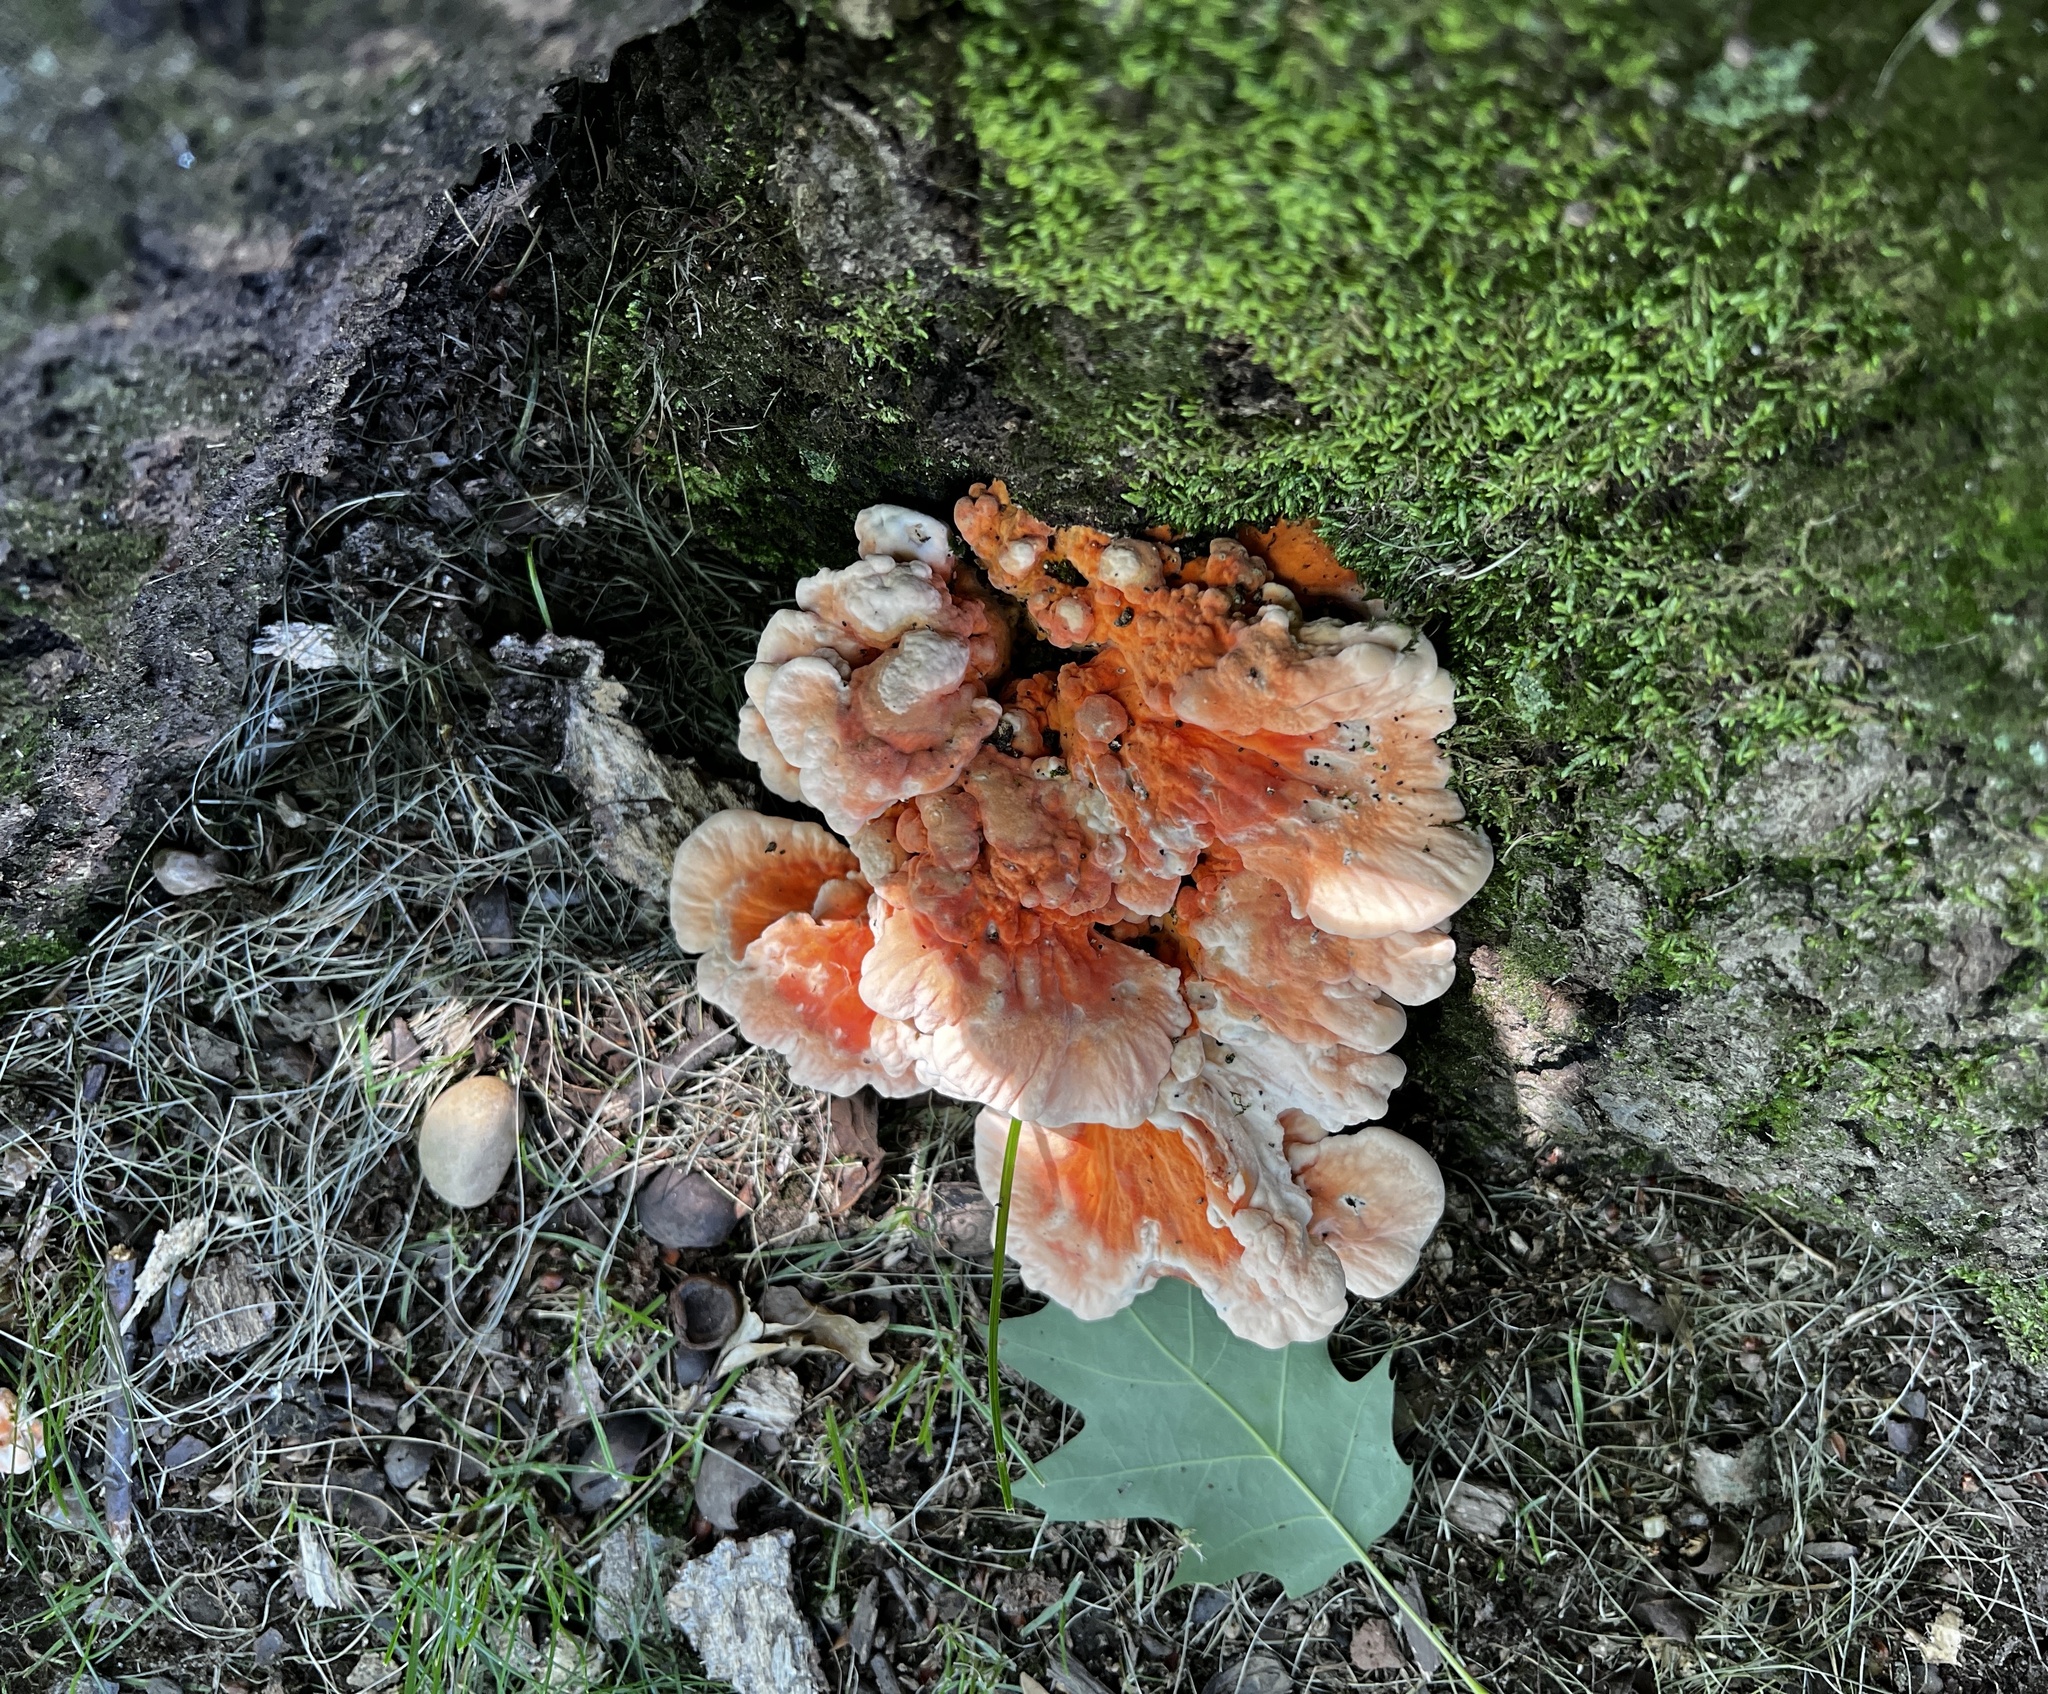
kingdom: Fungi
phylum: Basidiomycota
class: Agaricomycetes
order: Polyporales
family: Laetiporaceae
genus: Laetiporus
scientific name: Laetiporus sulphureus
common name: Chicken of the woods
